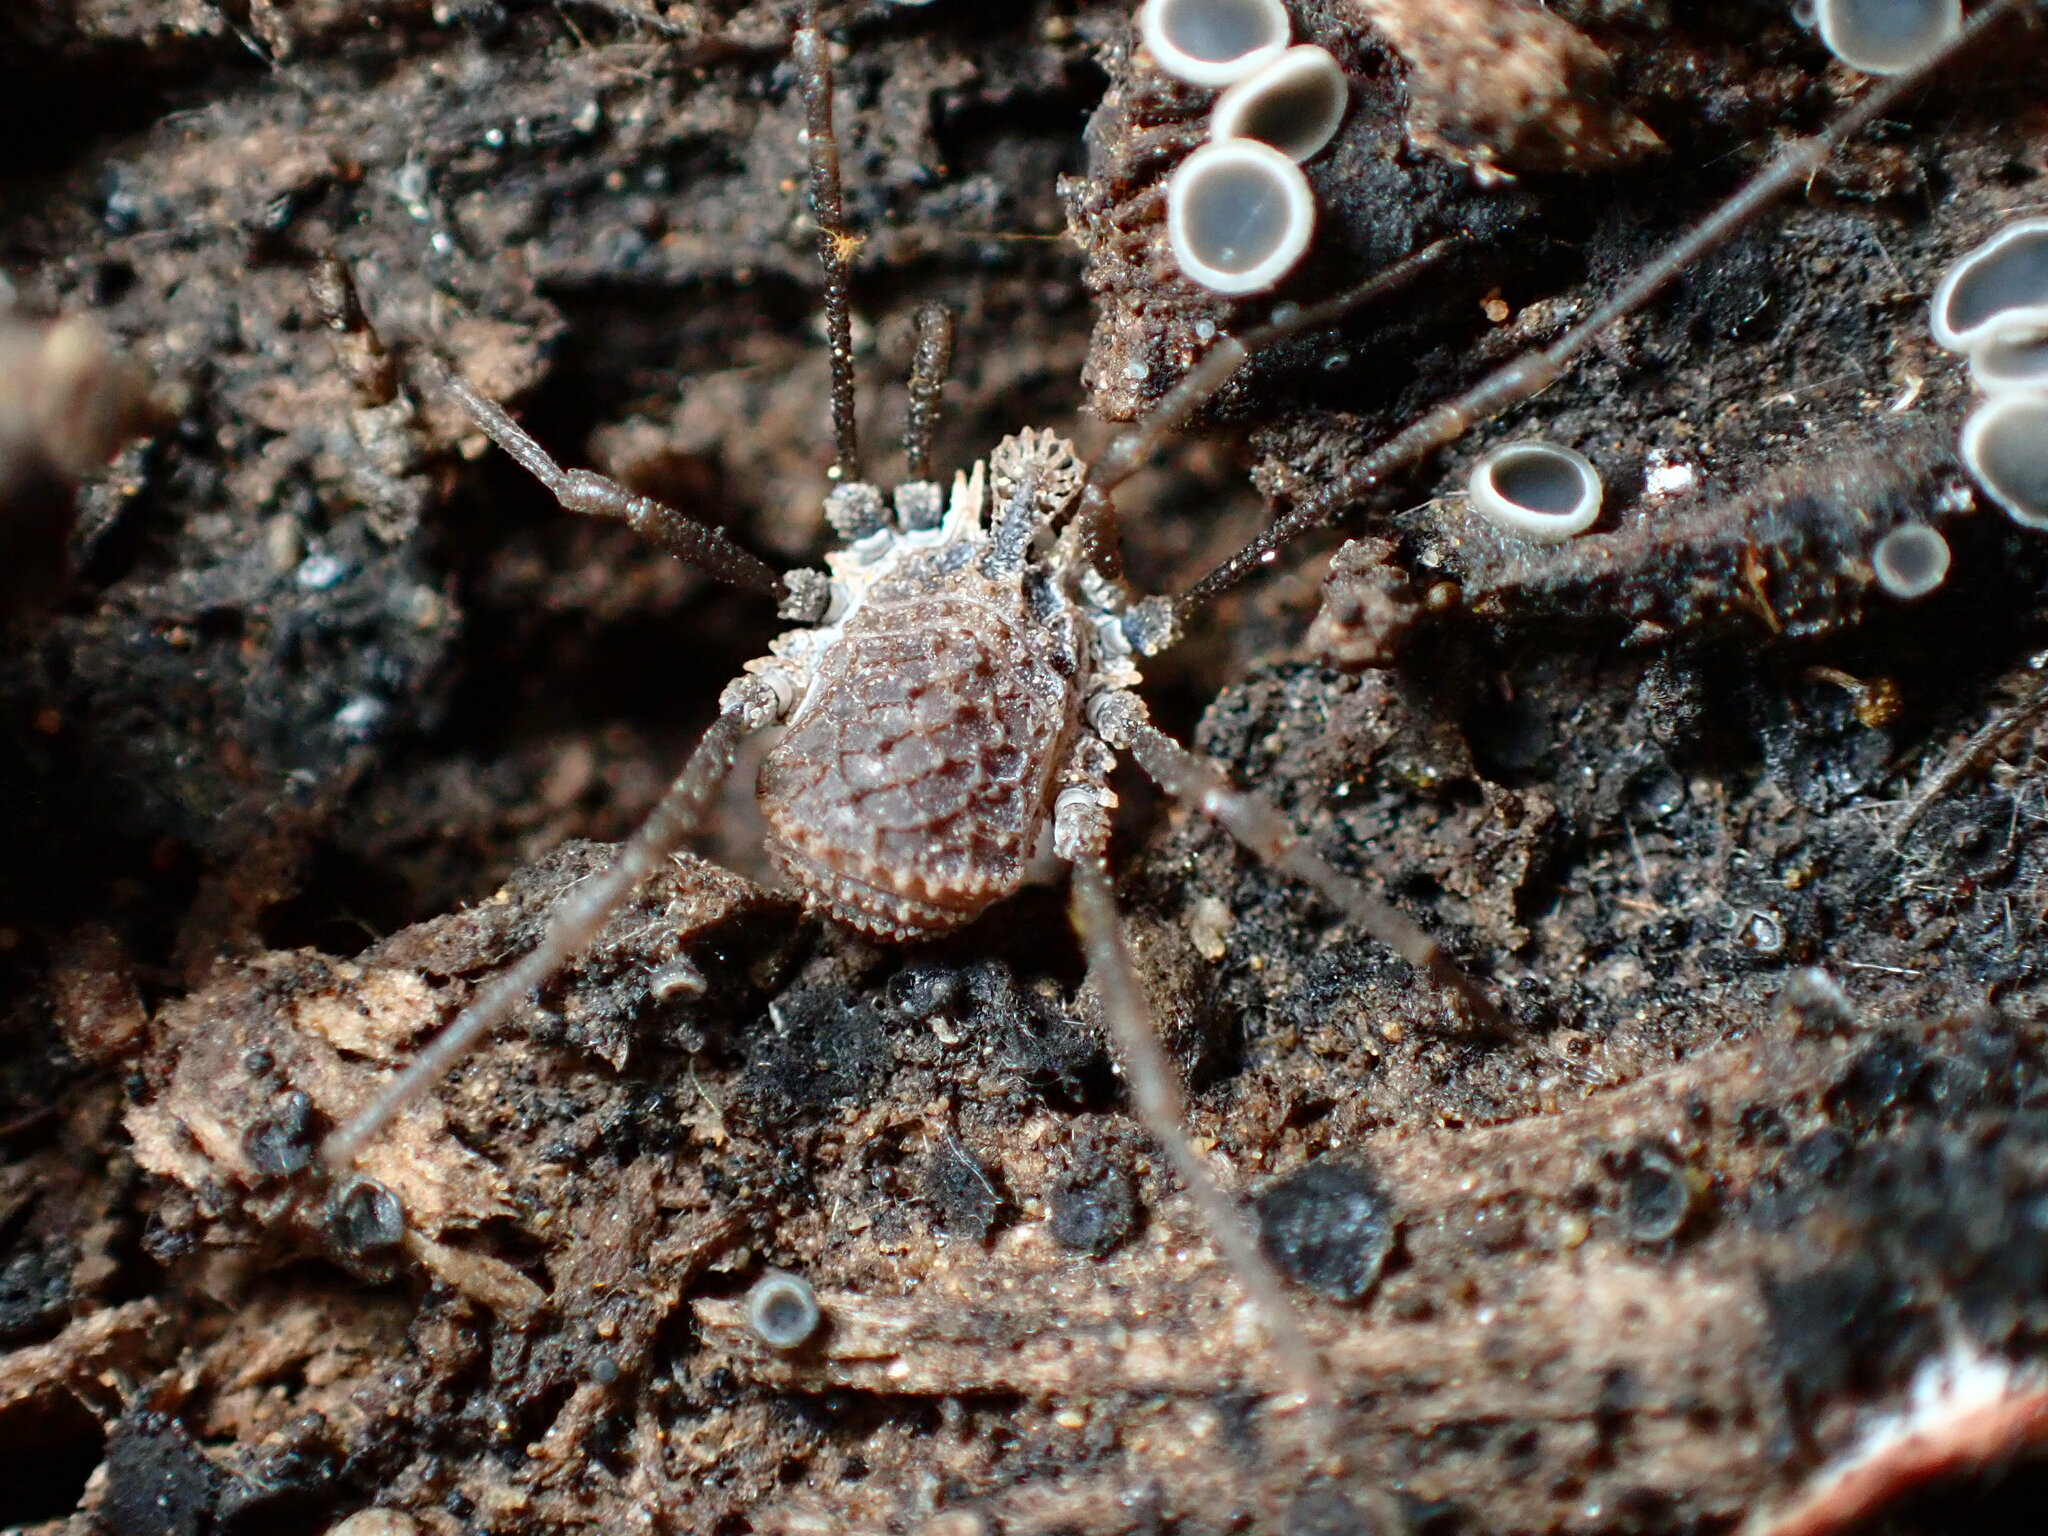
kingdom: Animalia
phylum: Arthropoda
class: Arachnida
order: Opiliones
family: Nemastomatidae
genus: Ortholasma
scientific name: Ortholasma rugosum
